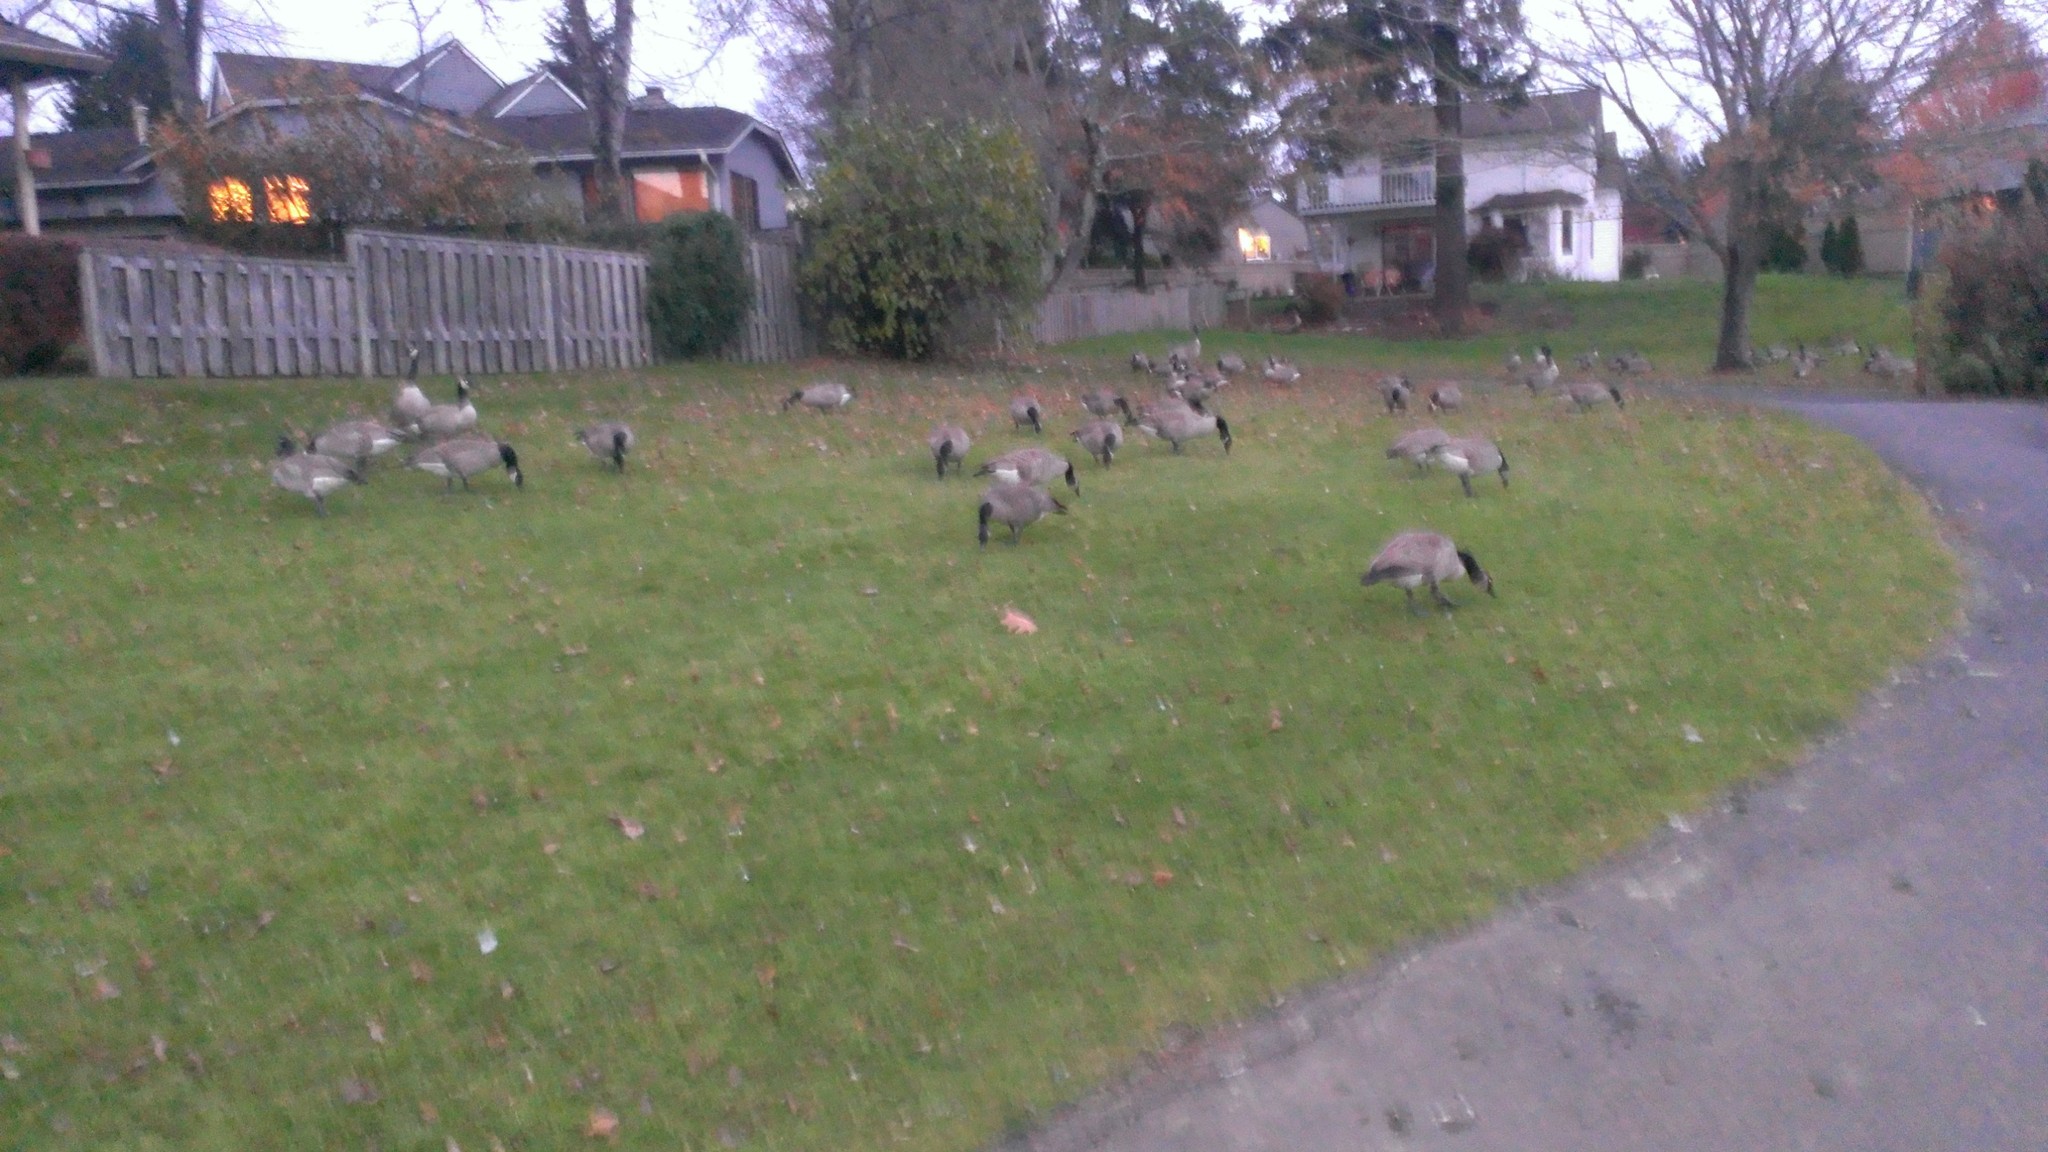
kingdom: Animalia
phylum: Chordata
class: Aves
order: Anseriformes
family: Anatidae
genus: Branta
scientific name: Branta canadensis
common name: Canada goose
